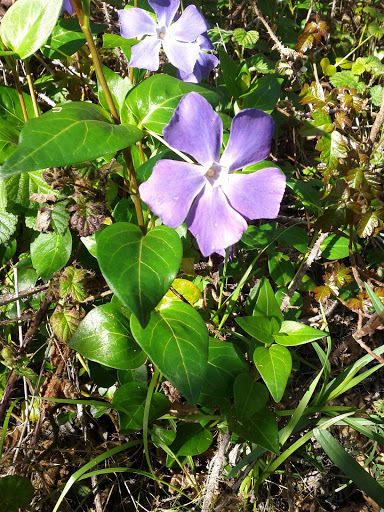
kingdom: Plantae
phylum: Tracheophyta
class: Magnoliopsida
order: Gentianales
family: Apocynaceae
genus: Vinca
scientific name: Vinca major
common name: Greater periwinkle
